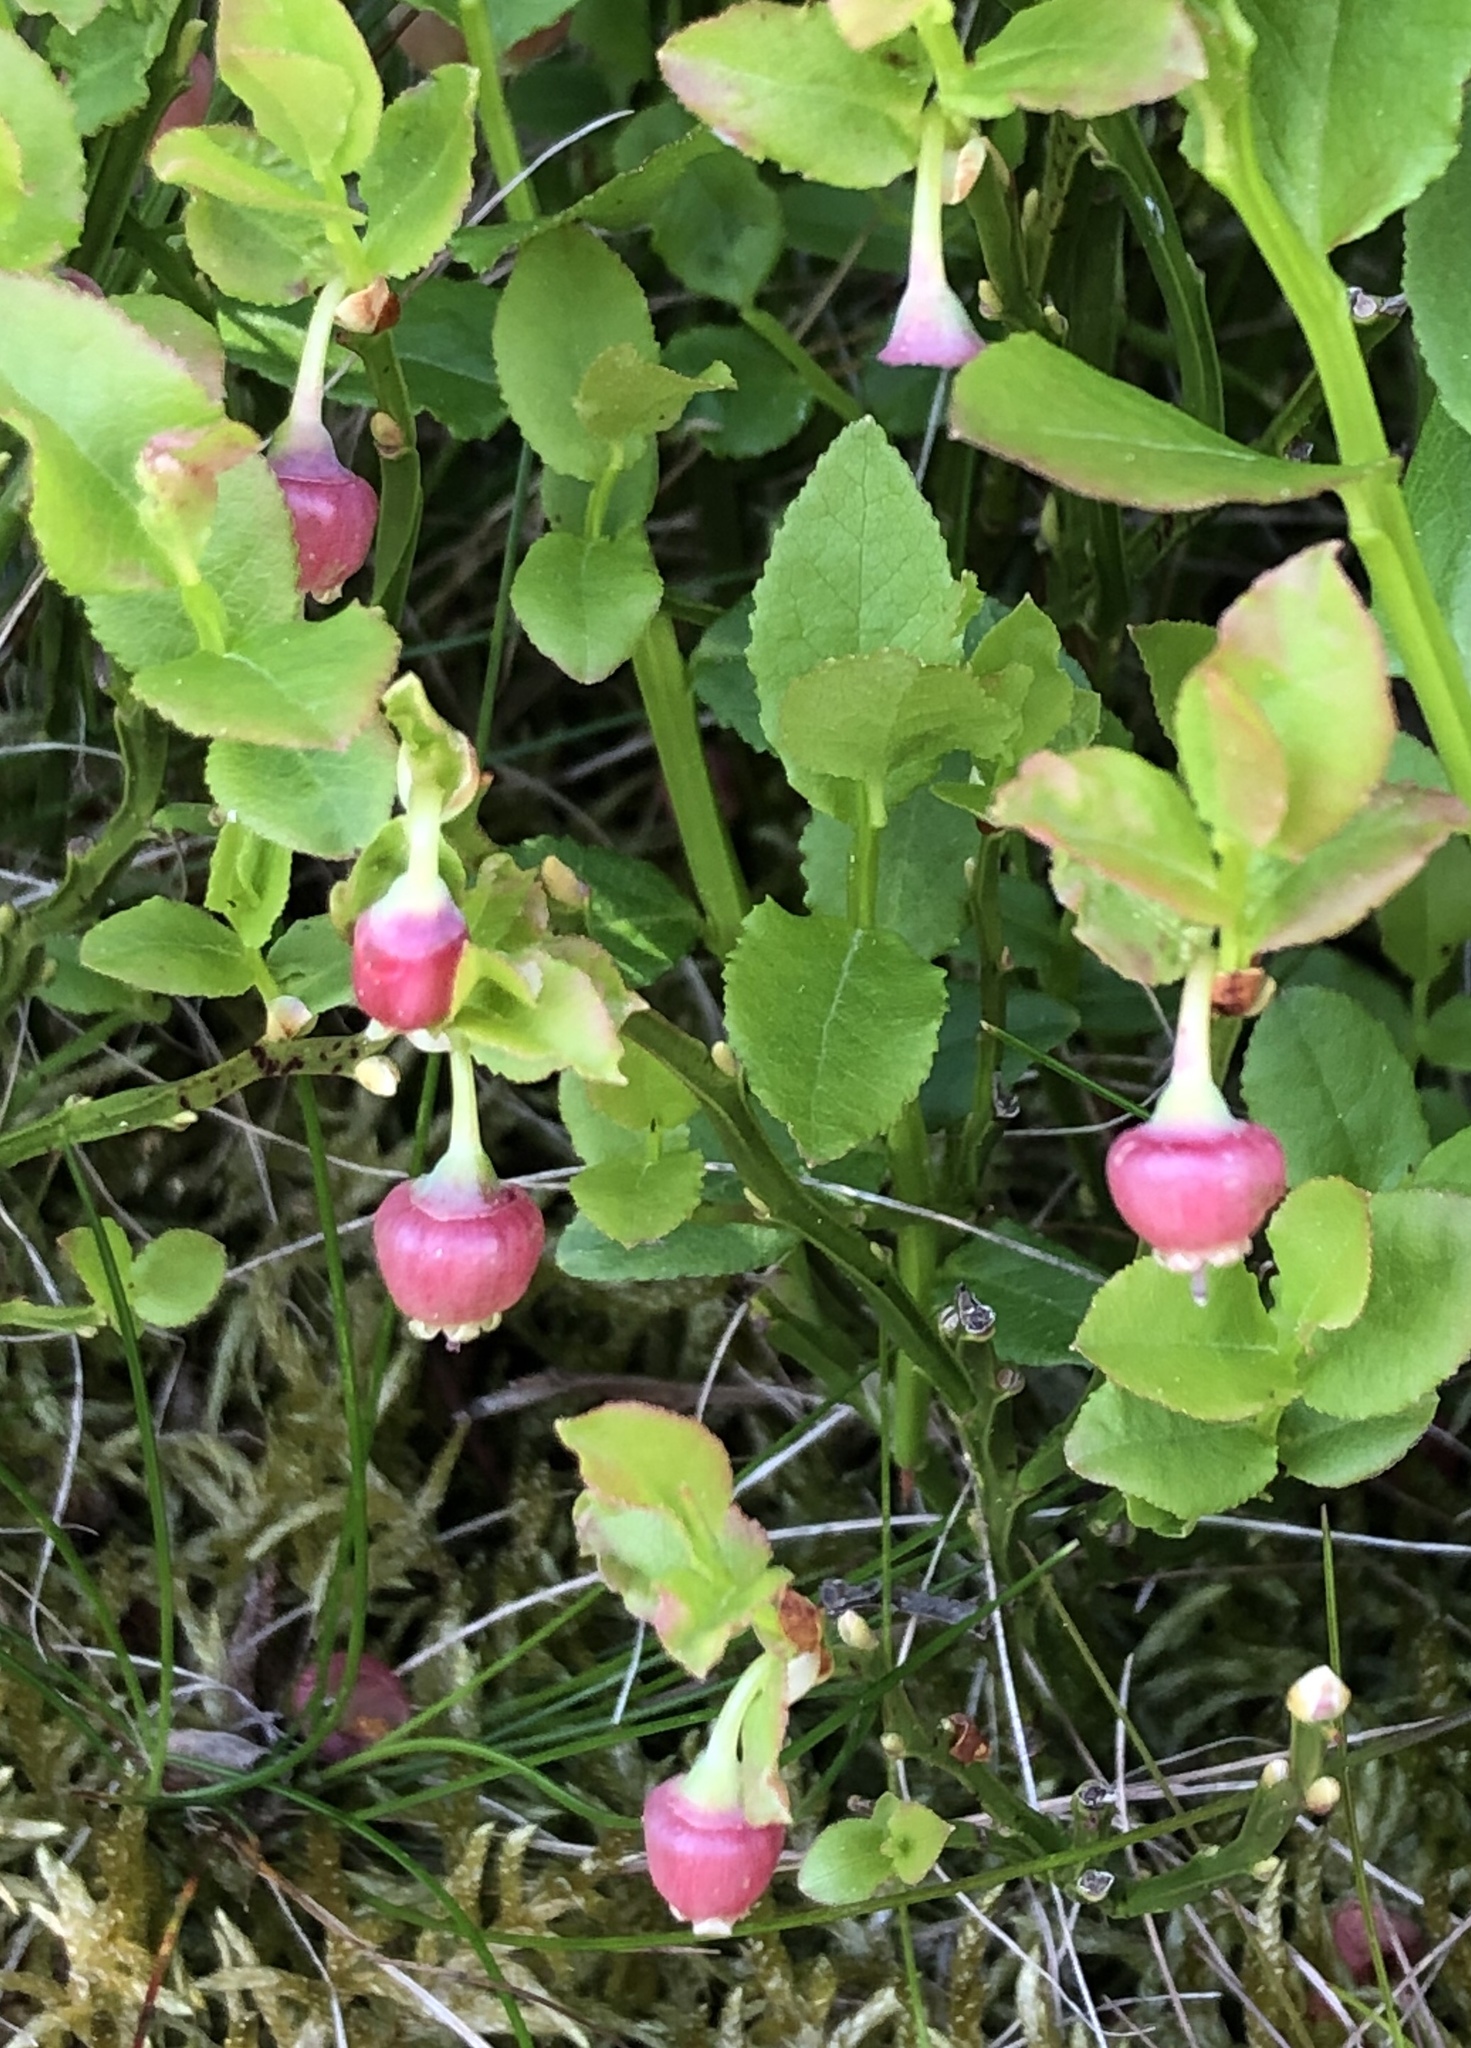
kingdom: Plantae
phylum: Tracheophyta
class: Magnoliopsida
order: Ericales
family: Ericaceae
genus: Vaccinium
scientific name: Vaccinium myrtillus
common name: Bilberry
